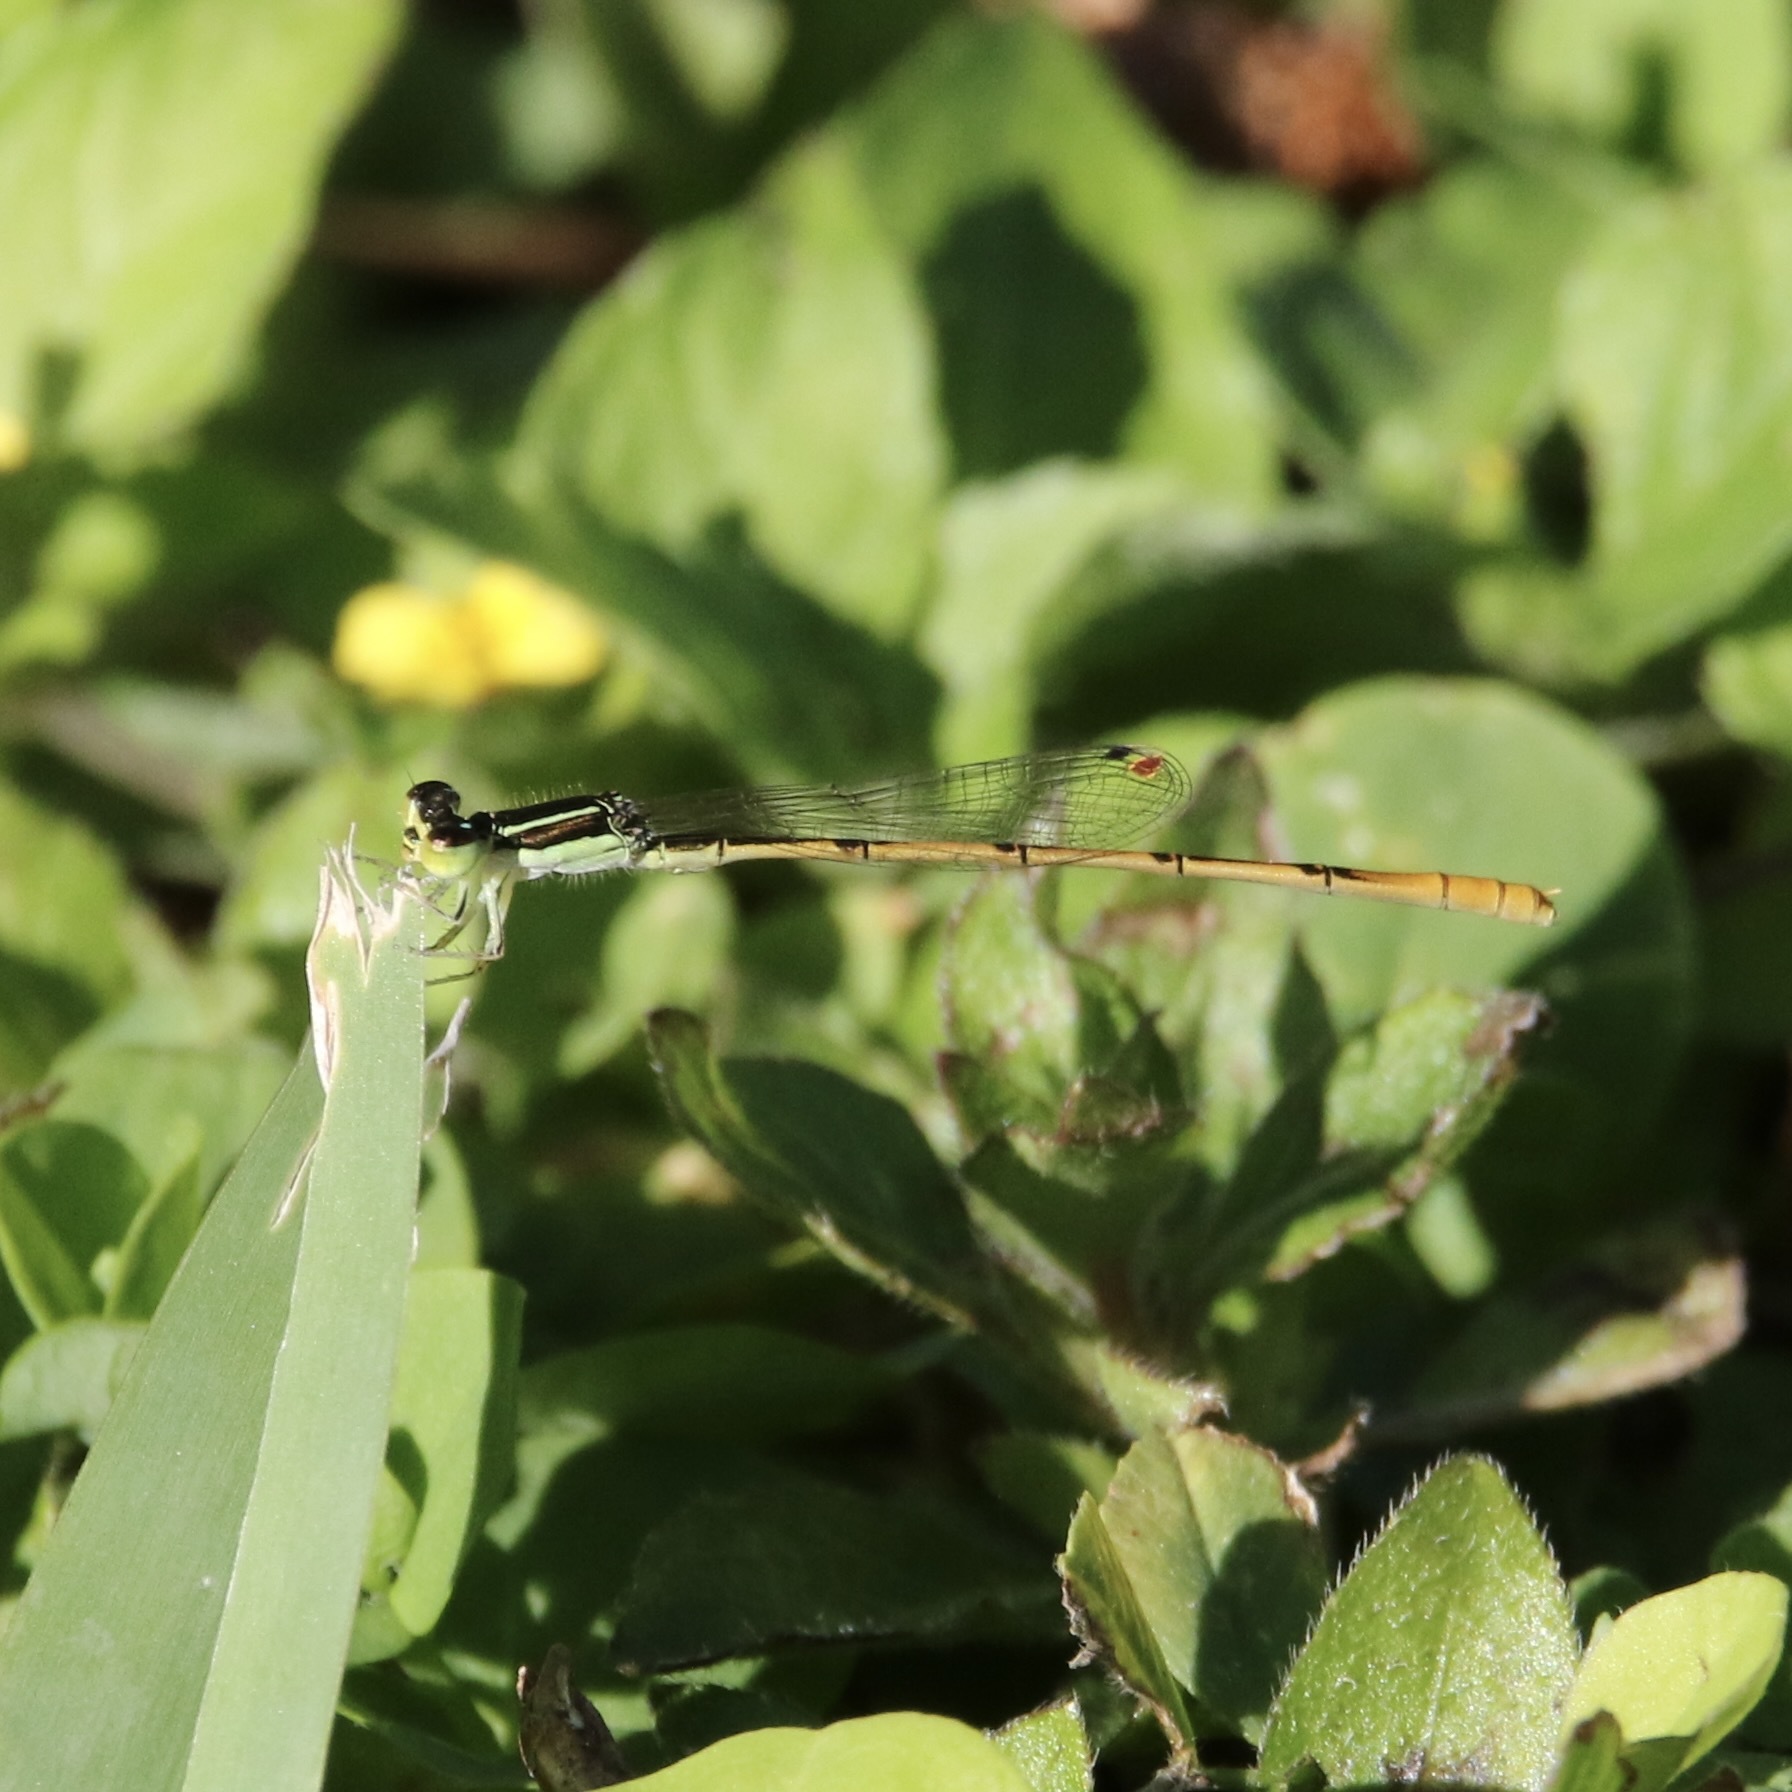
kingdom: Animalia
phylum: Arthropoda
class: Insecta
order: Odonata
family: Coenagrionidae
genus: Ischnura
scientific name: Ischnura hastata
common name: Citrine forktail
